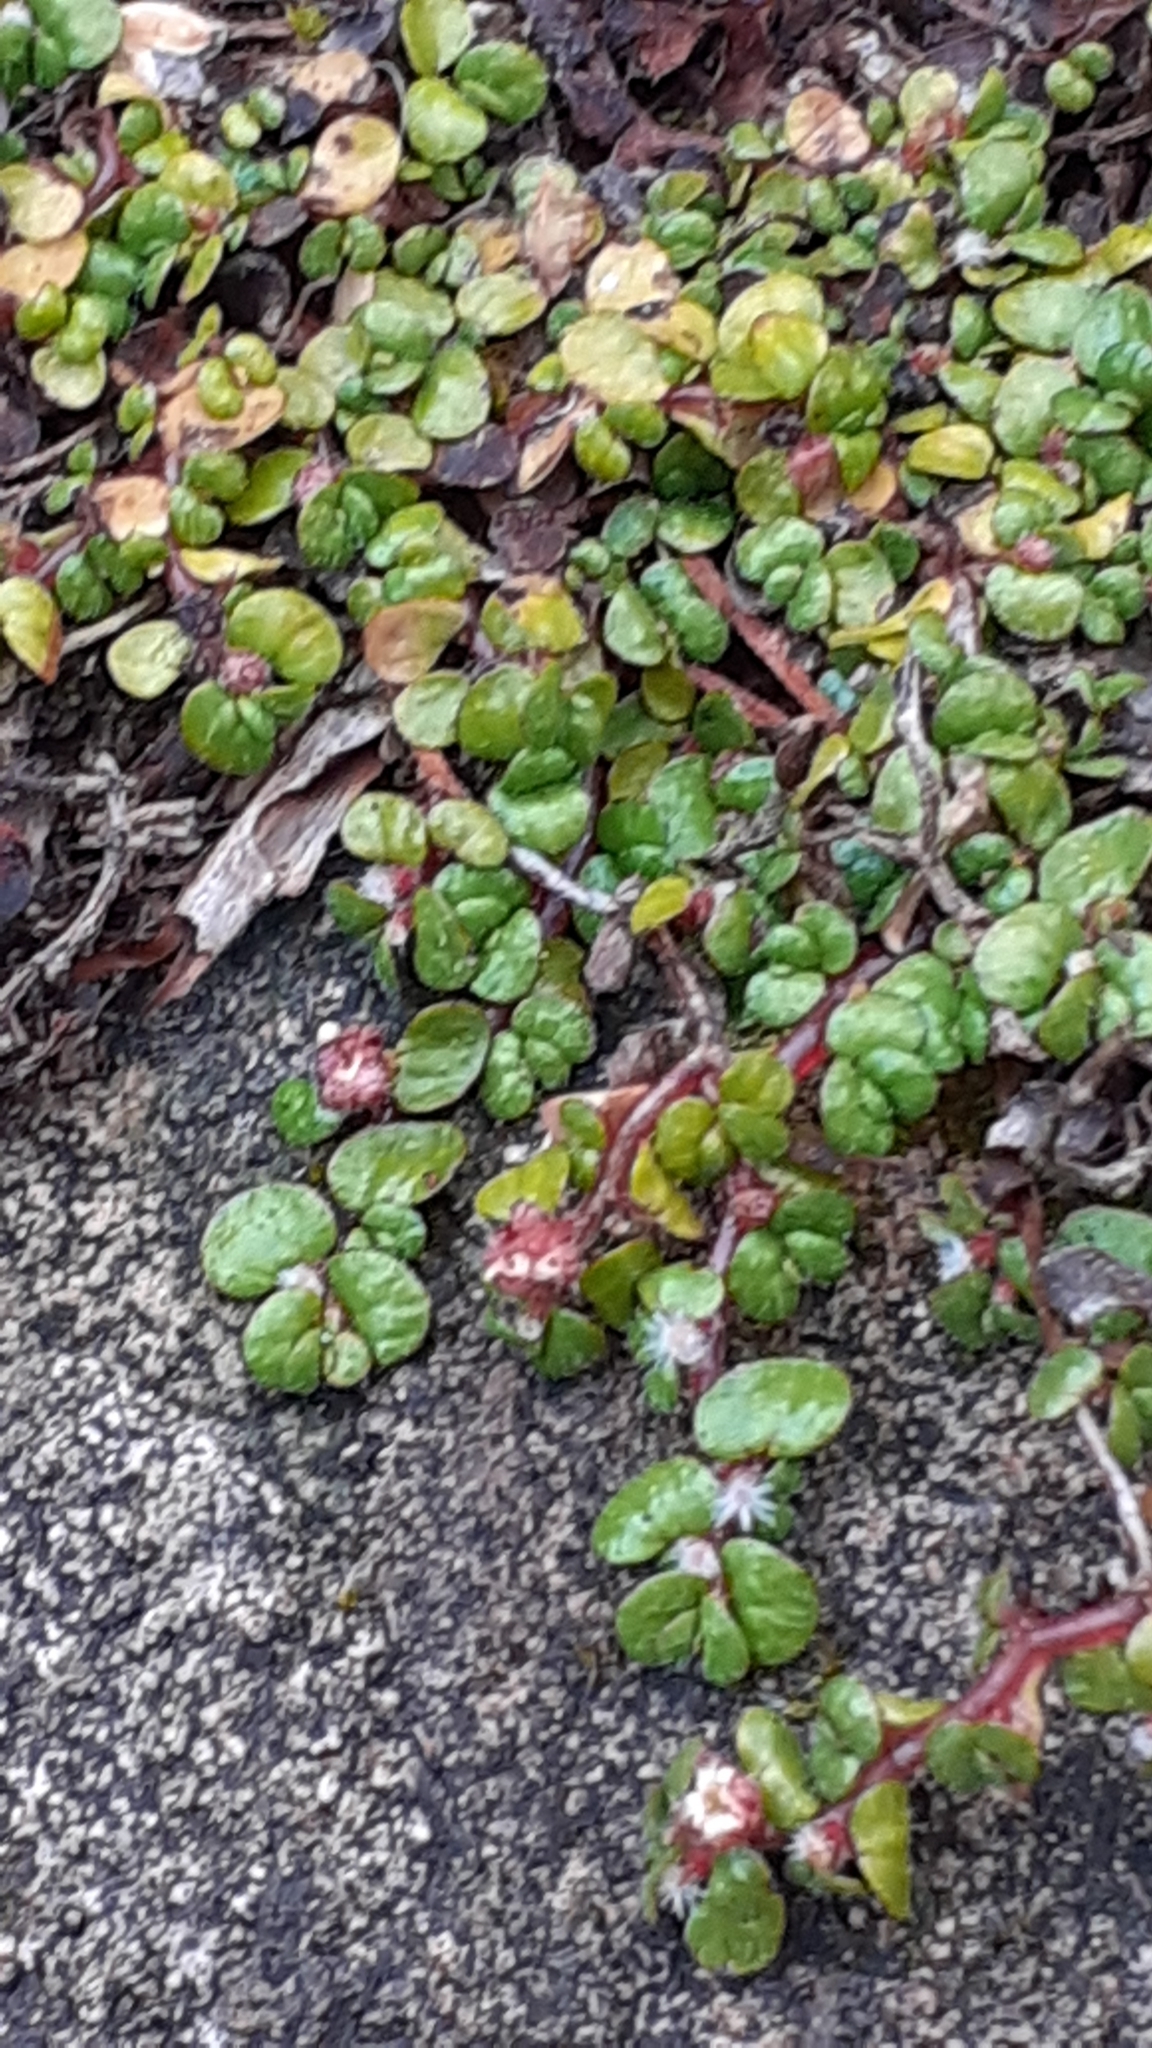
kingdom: Plantae
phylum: Tracheophyta
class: Magnoliopsida
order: Rosales
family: Urticaceae
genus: Soleirolia
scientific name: Soleirolia soleirolii
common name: Mind-your-own-business
